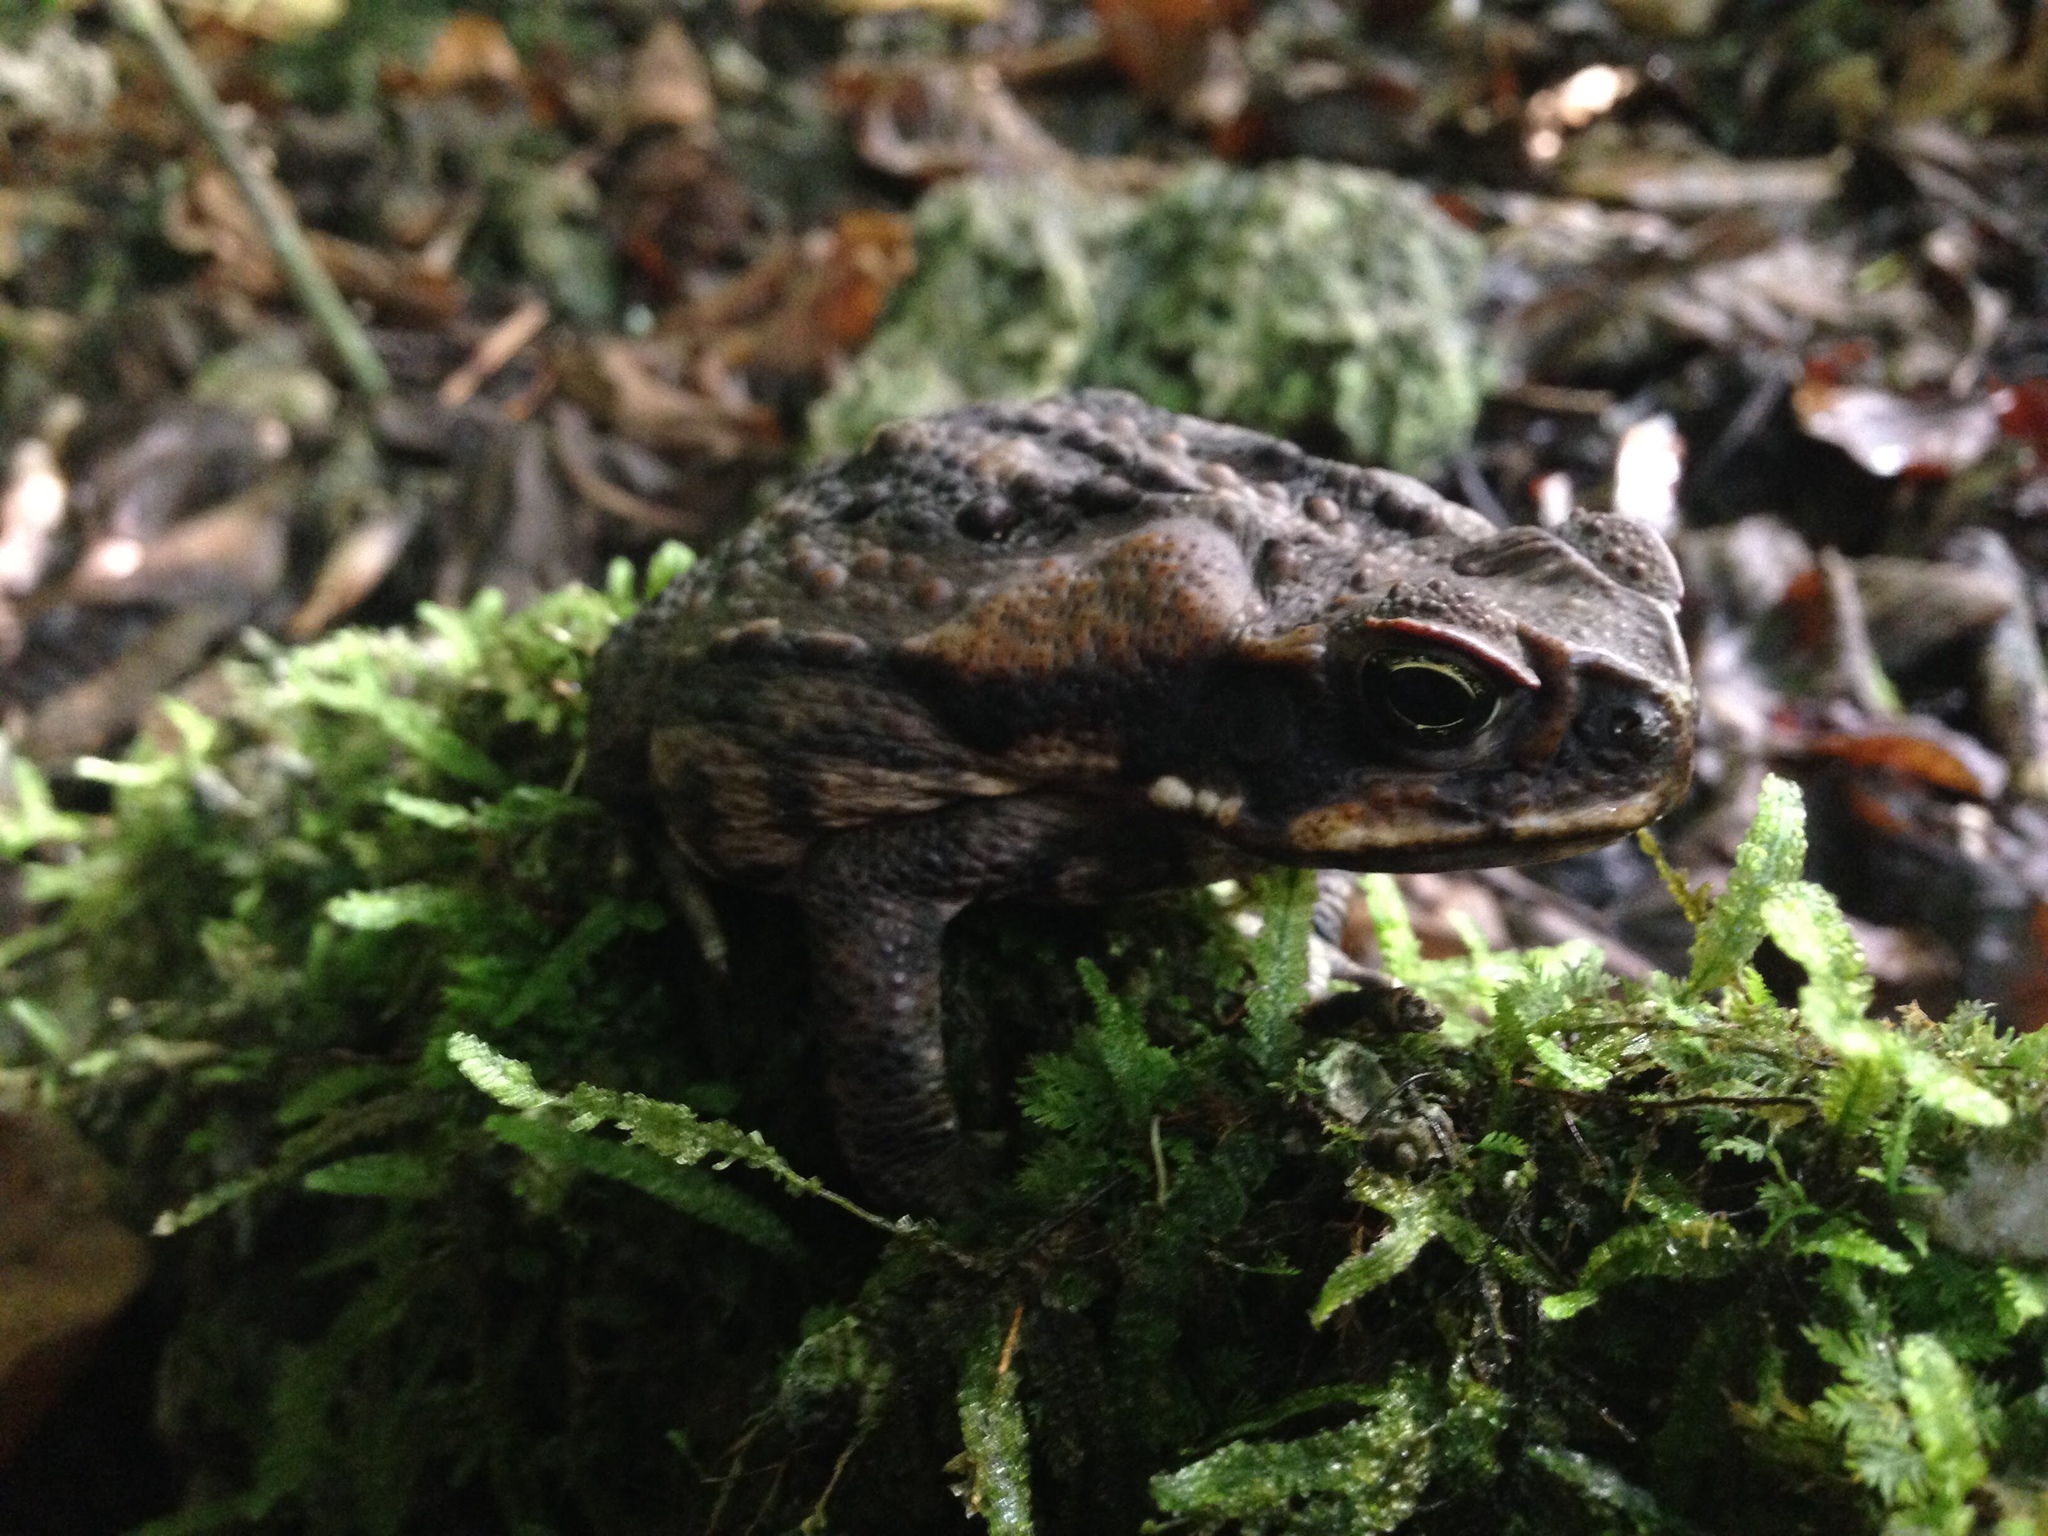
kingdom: Animalia
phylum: Chordata
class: Amphibia
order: Anura
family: Bufonidae
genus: Rhinella
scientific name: Rhinella marina
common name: Cane toad
